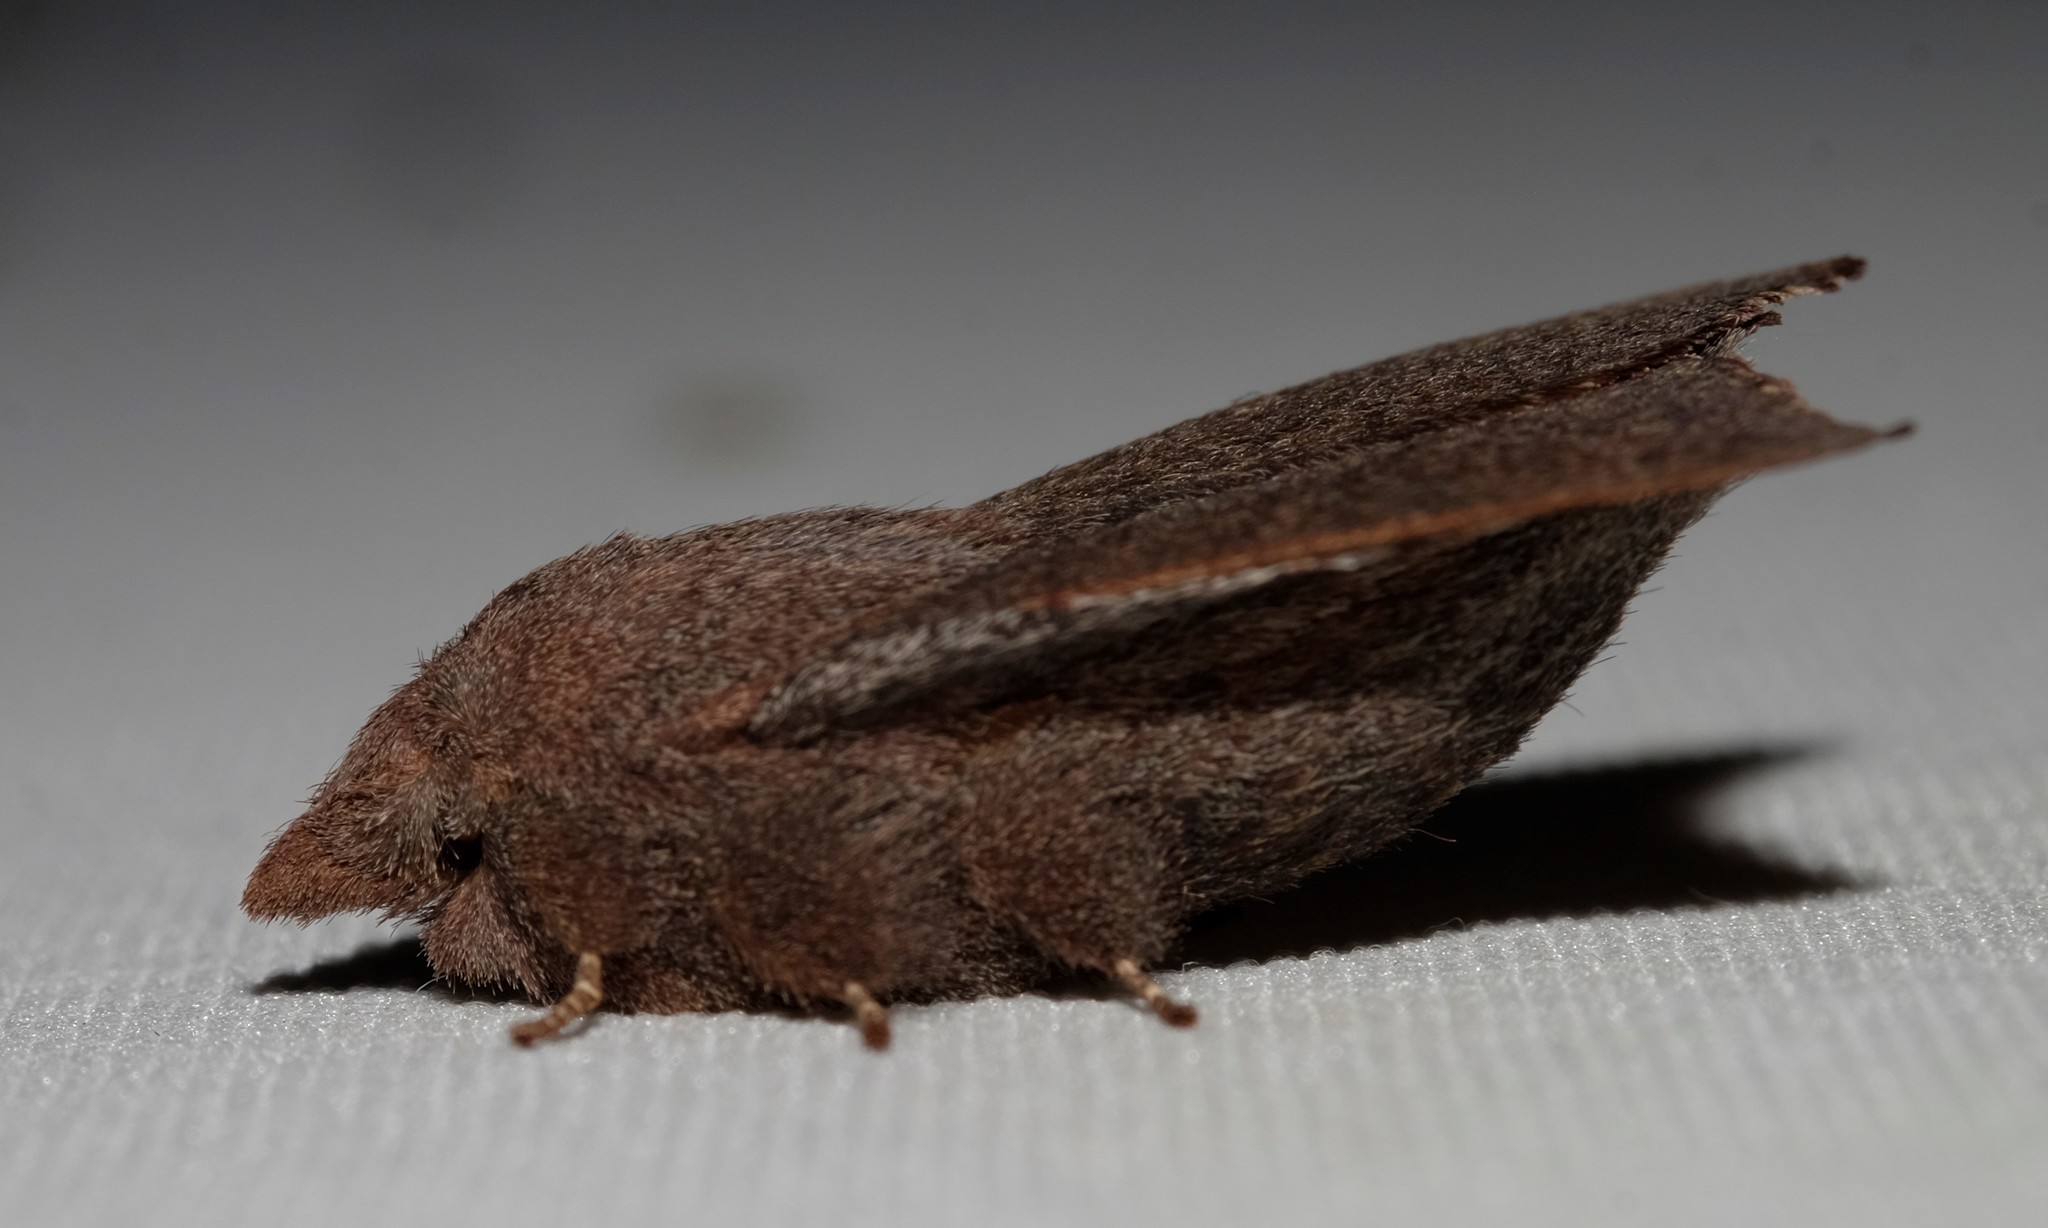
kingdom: Animalia
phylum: Arthropoda
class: Insecta
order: Lepidoptera
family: Lasiocampidae
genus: Pararguda
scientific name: Pararguda rufescens
